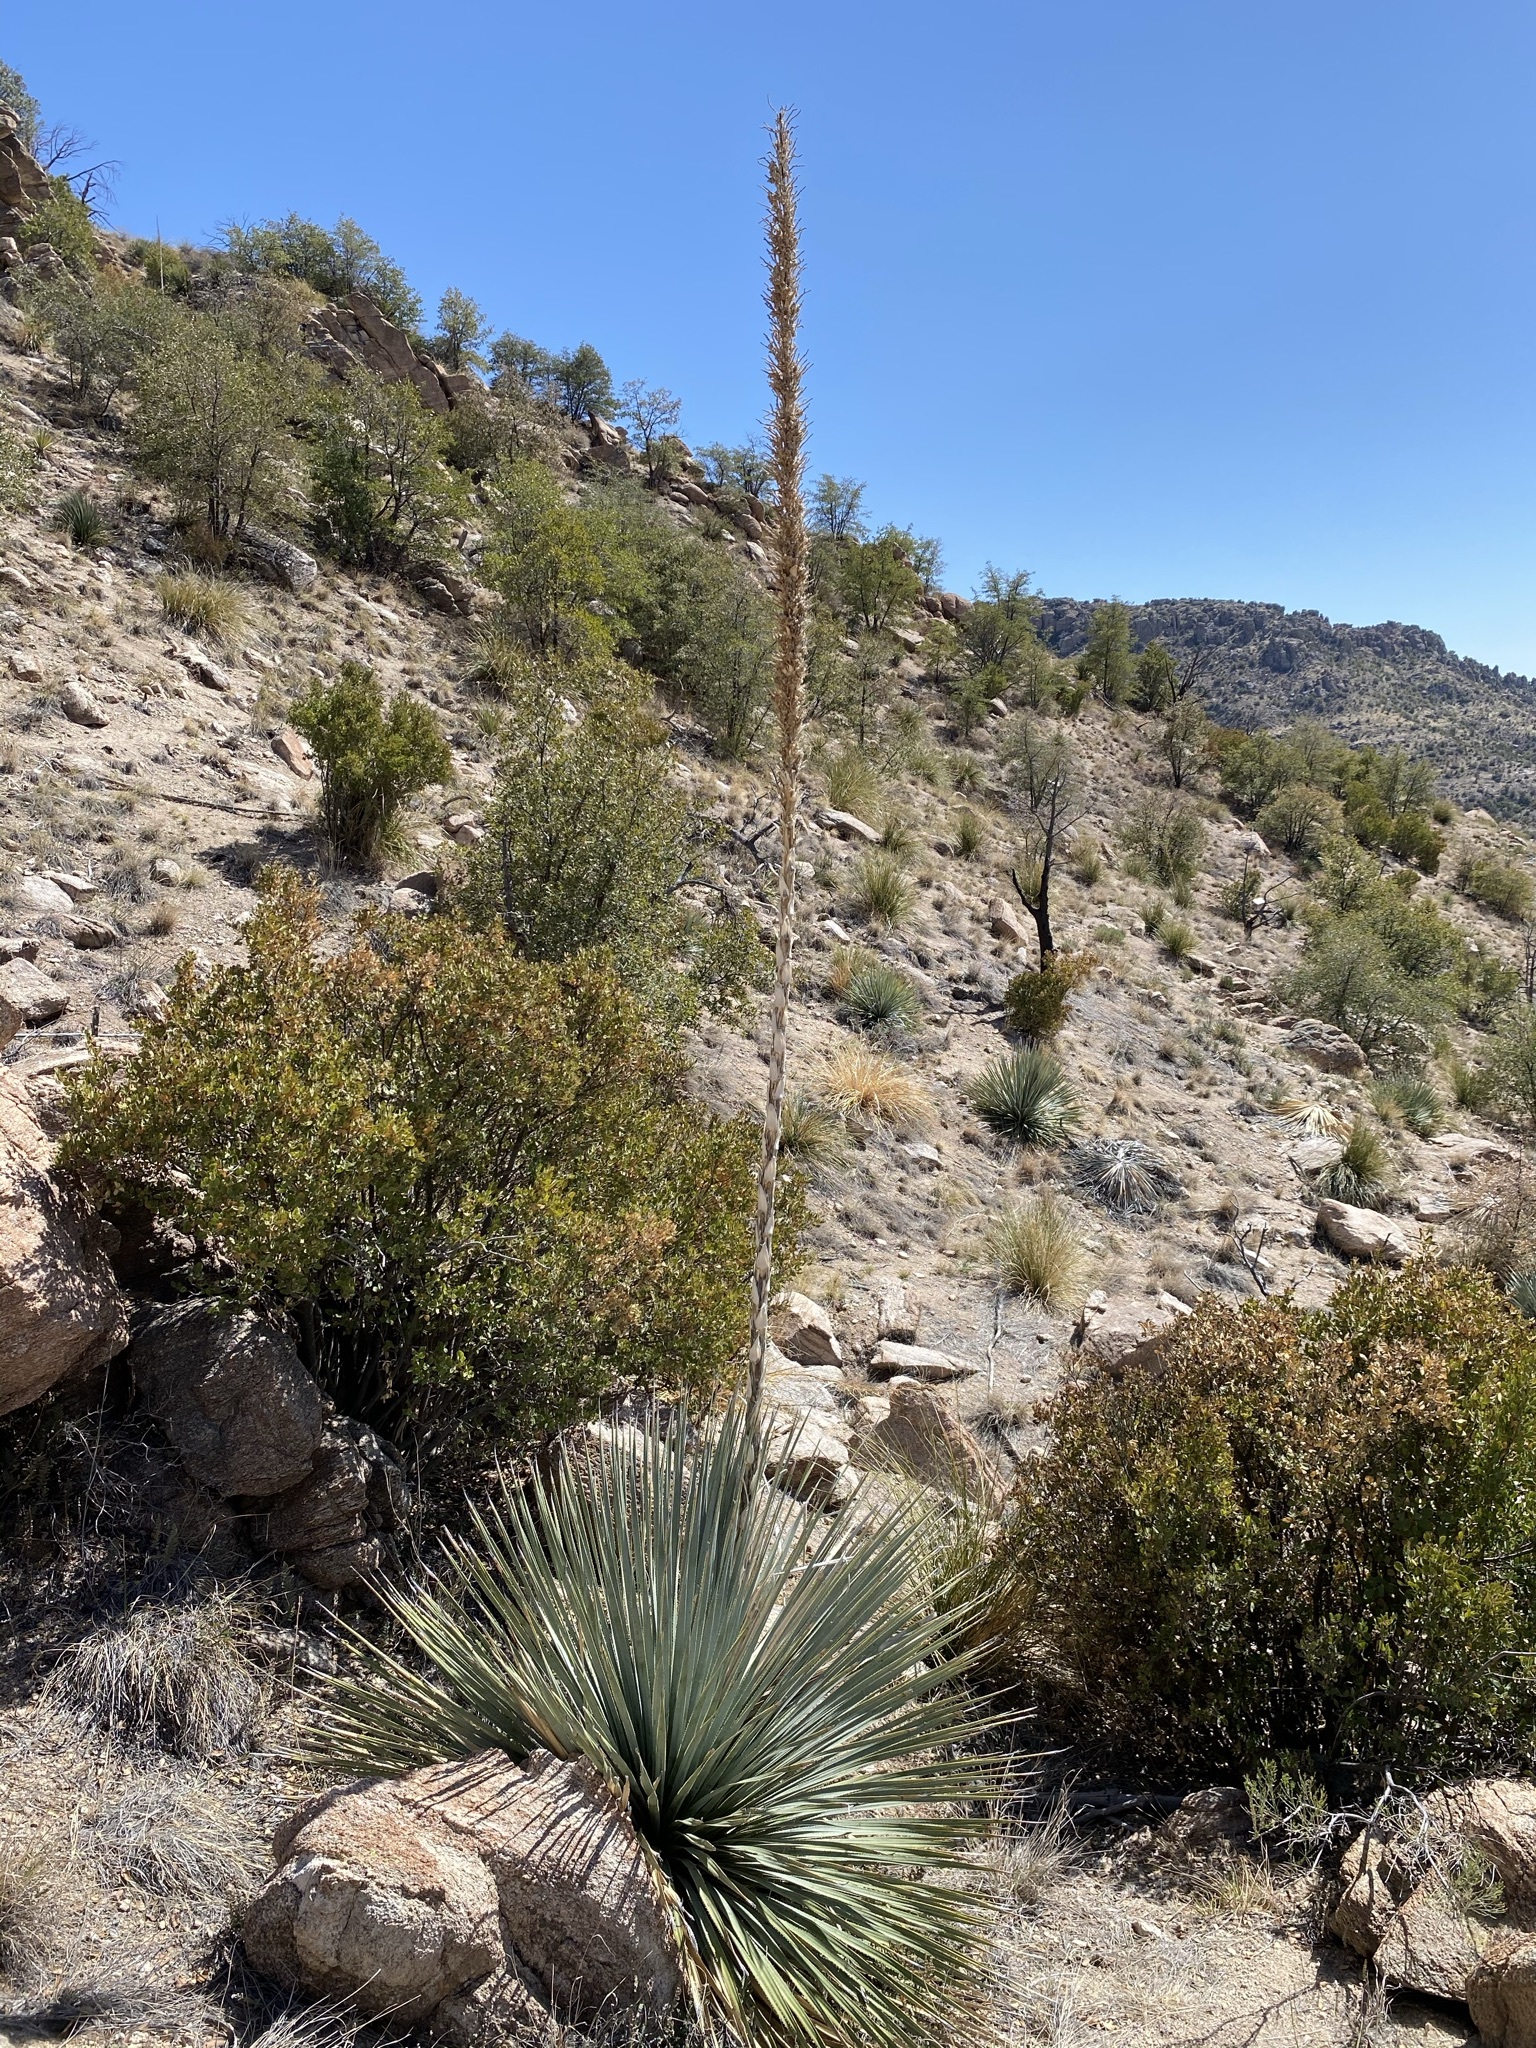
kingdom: Plantae
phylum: Tracheophyta
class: Liliopsida
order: Asparagales
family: Asparagaceae
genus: Dasylirion
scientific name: Dasylirion wheeleri
